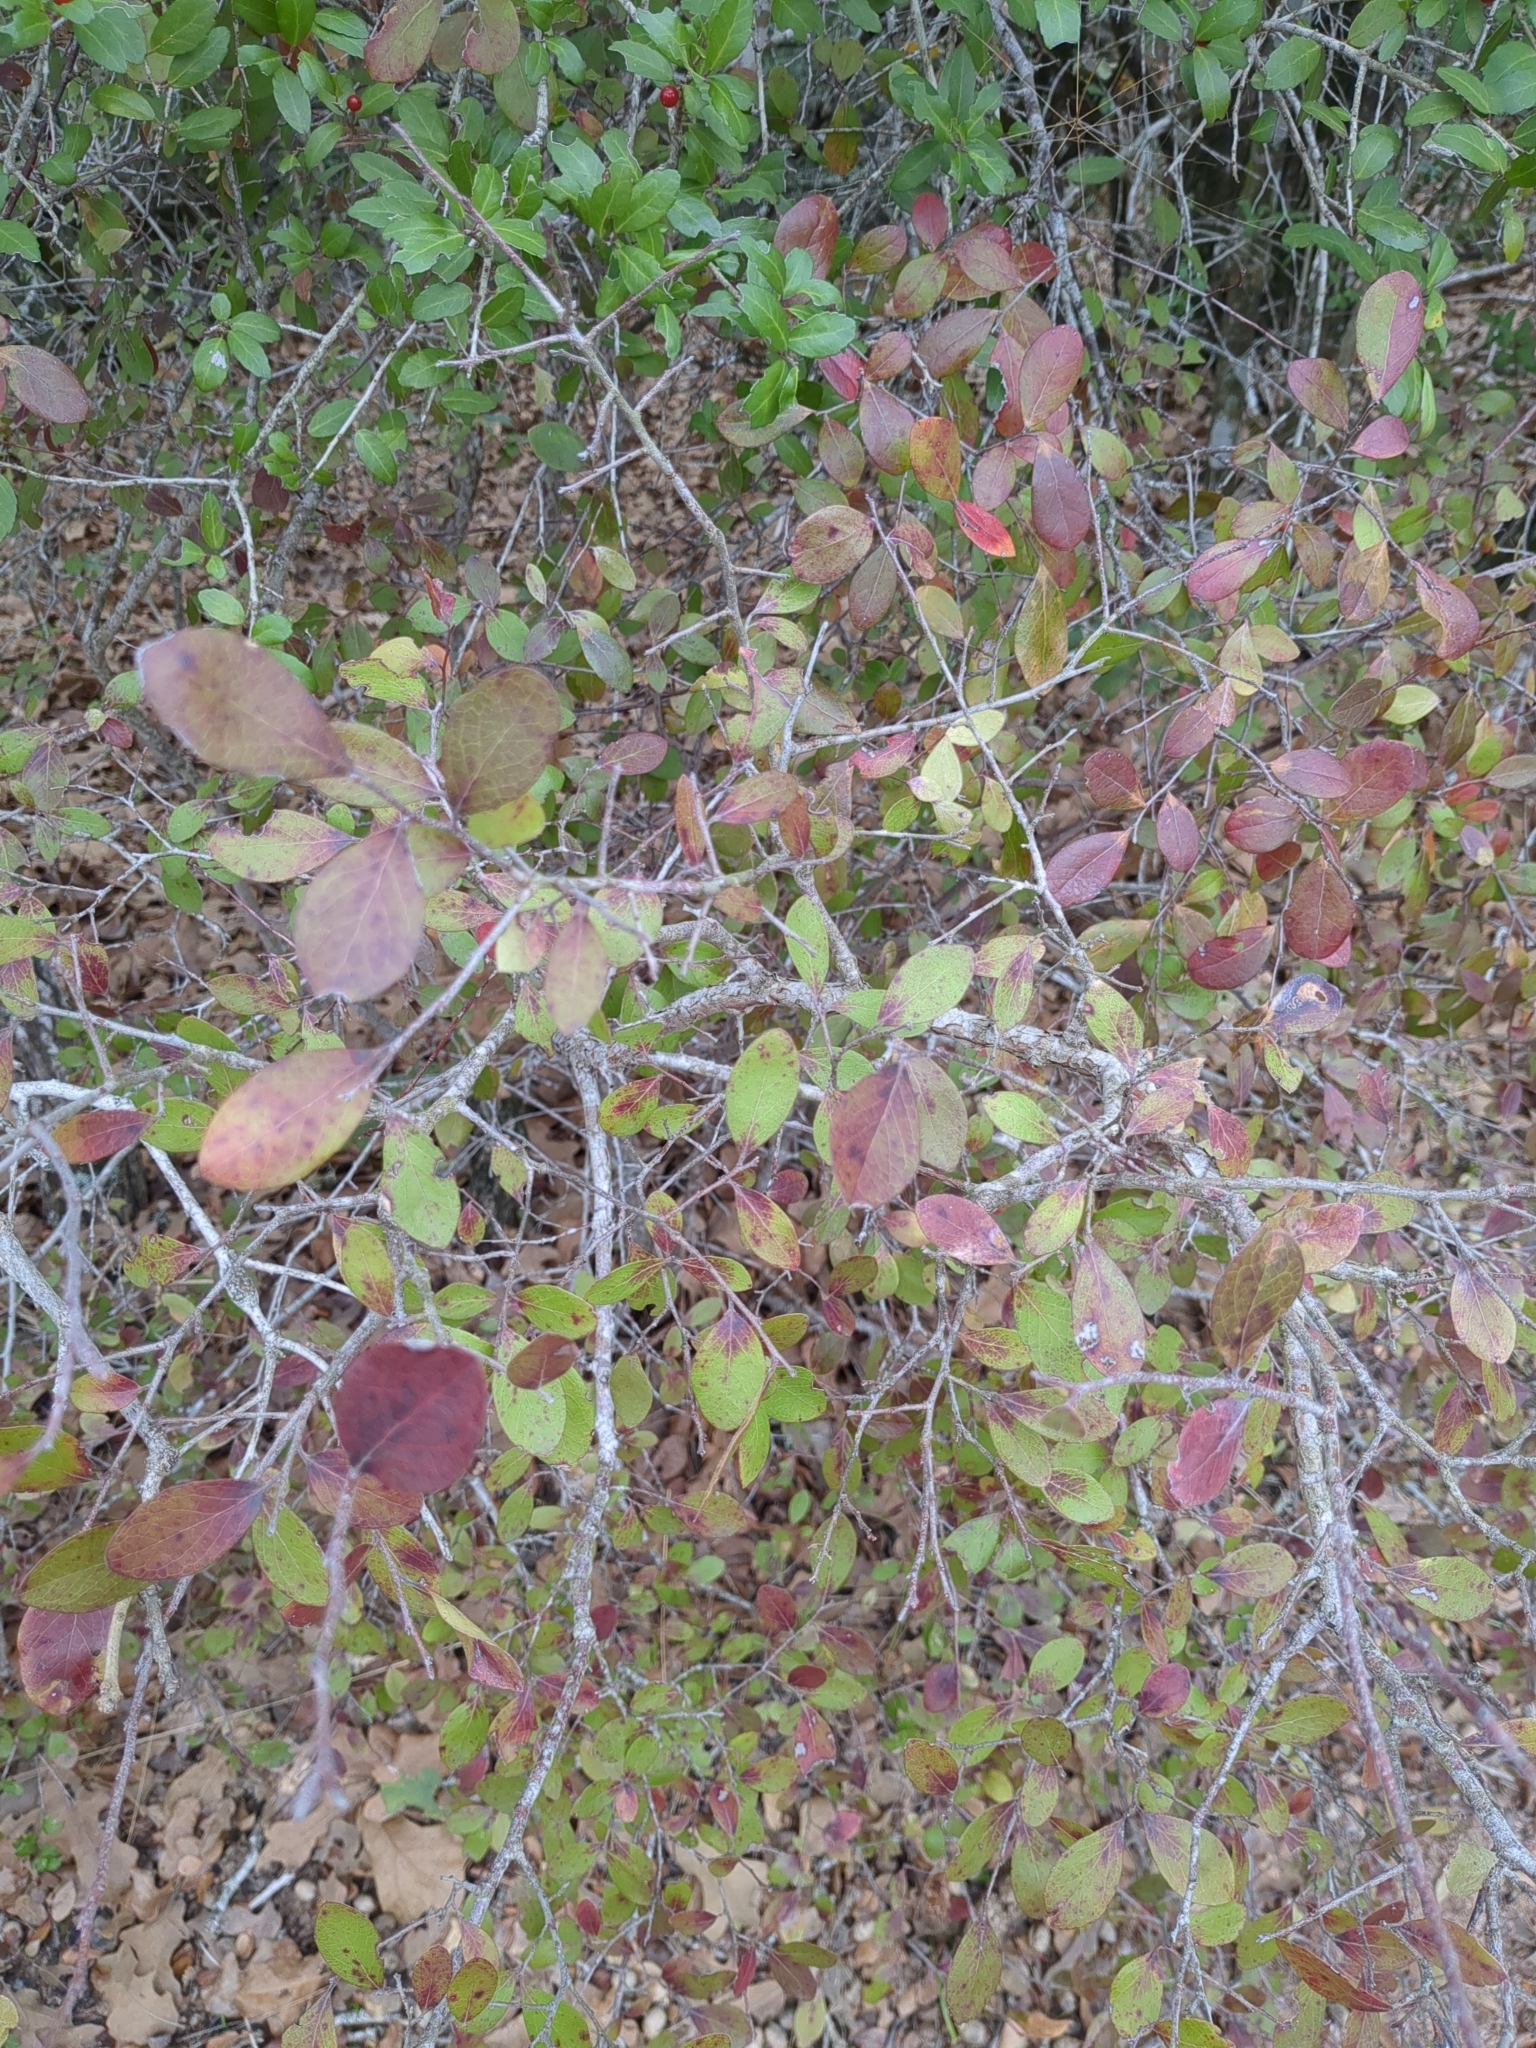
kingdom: Plantae
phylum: Tracheophyta
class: Magnoliopsida
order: Ericales
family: Ericaceae
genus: Vaccinium
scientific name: Vaccinium arboreum
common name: Farkleberry
